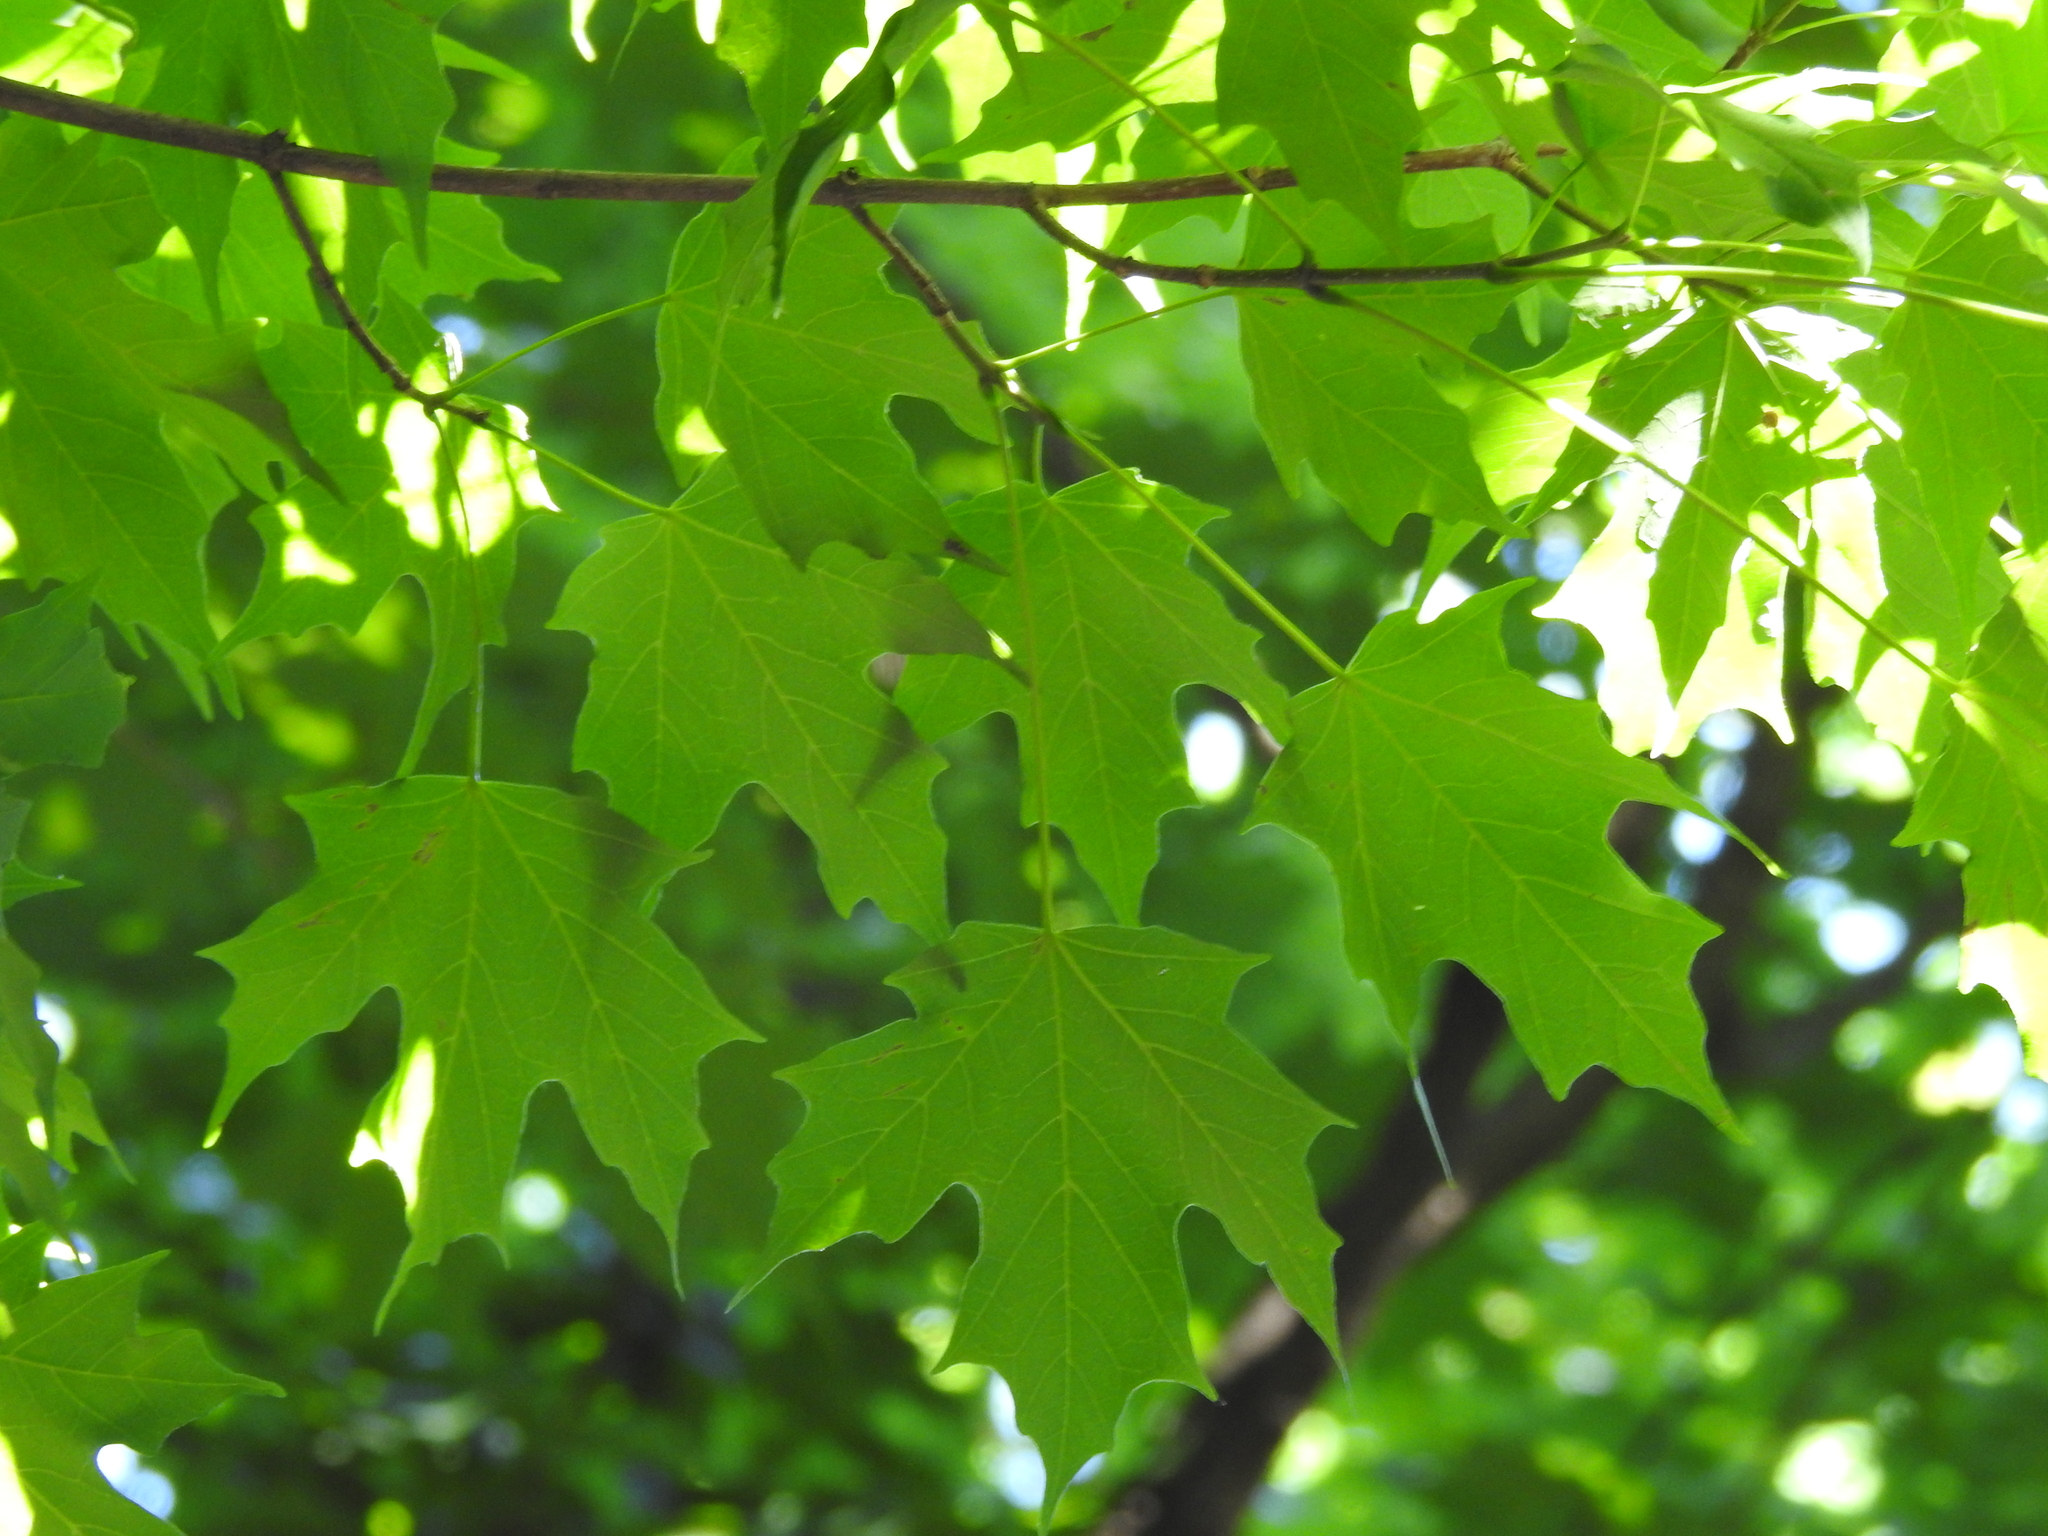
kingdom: Plantae
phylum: Tracheophyta
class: Magnoliopsida
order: Sapindales
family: Sapindaceae
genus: Acer
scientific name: Acer saccharum
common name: Sugar maple
